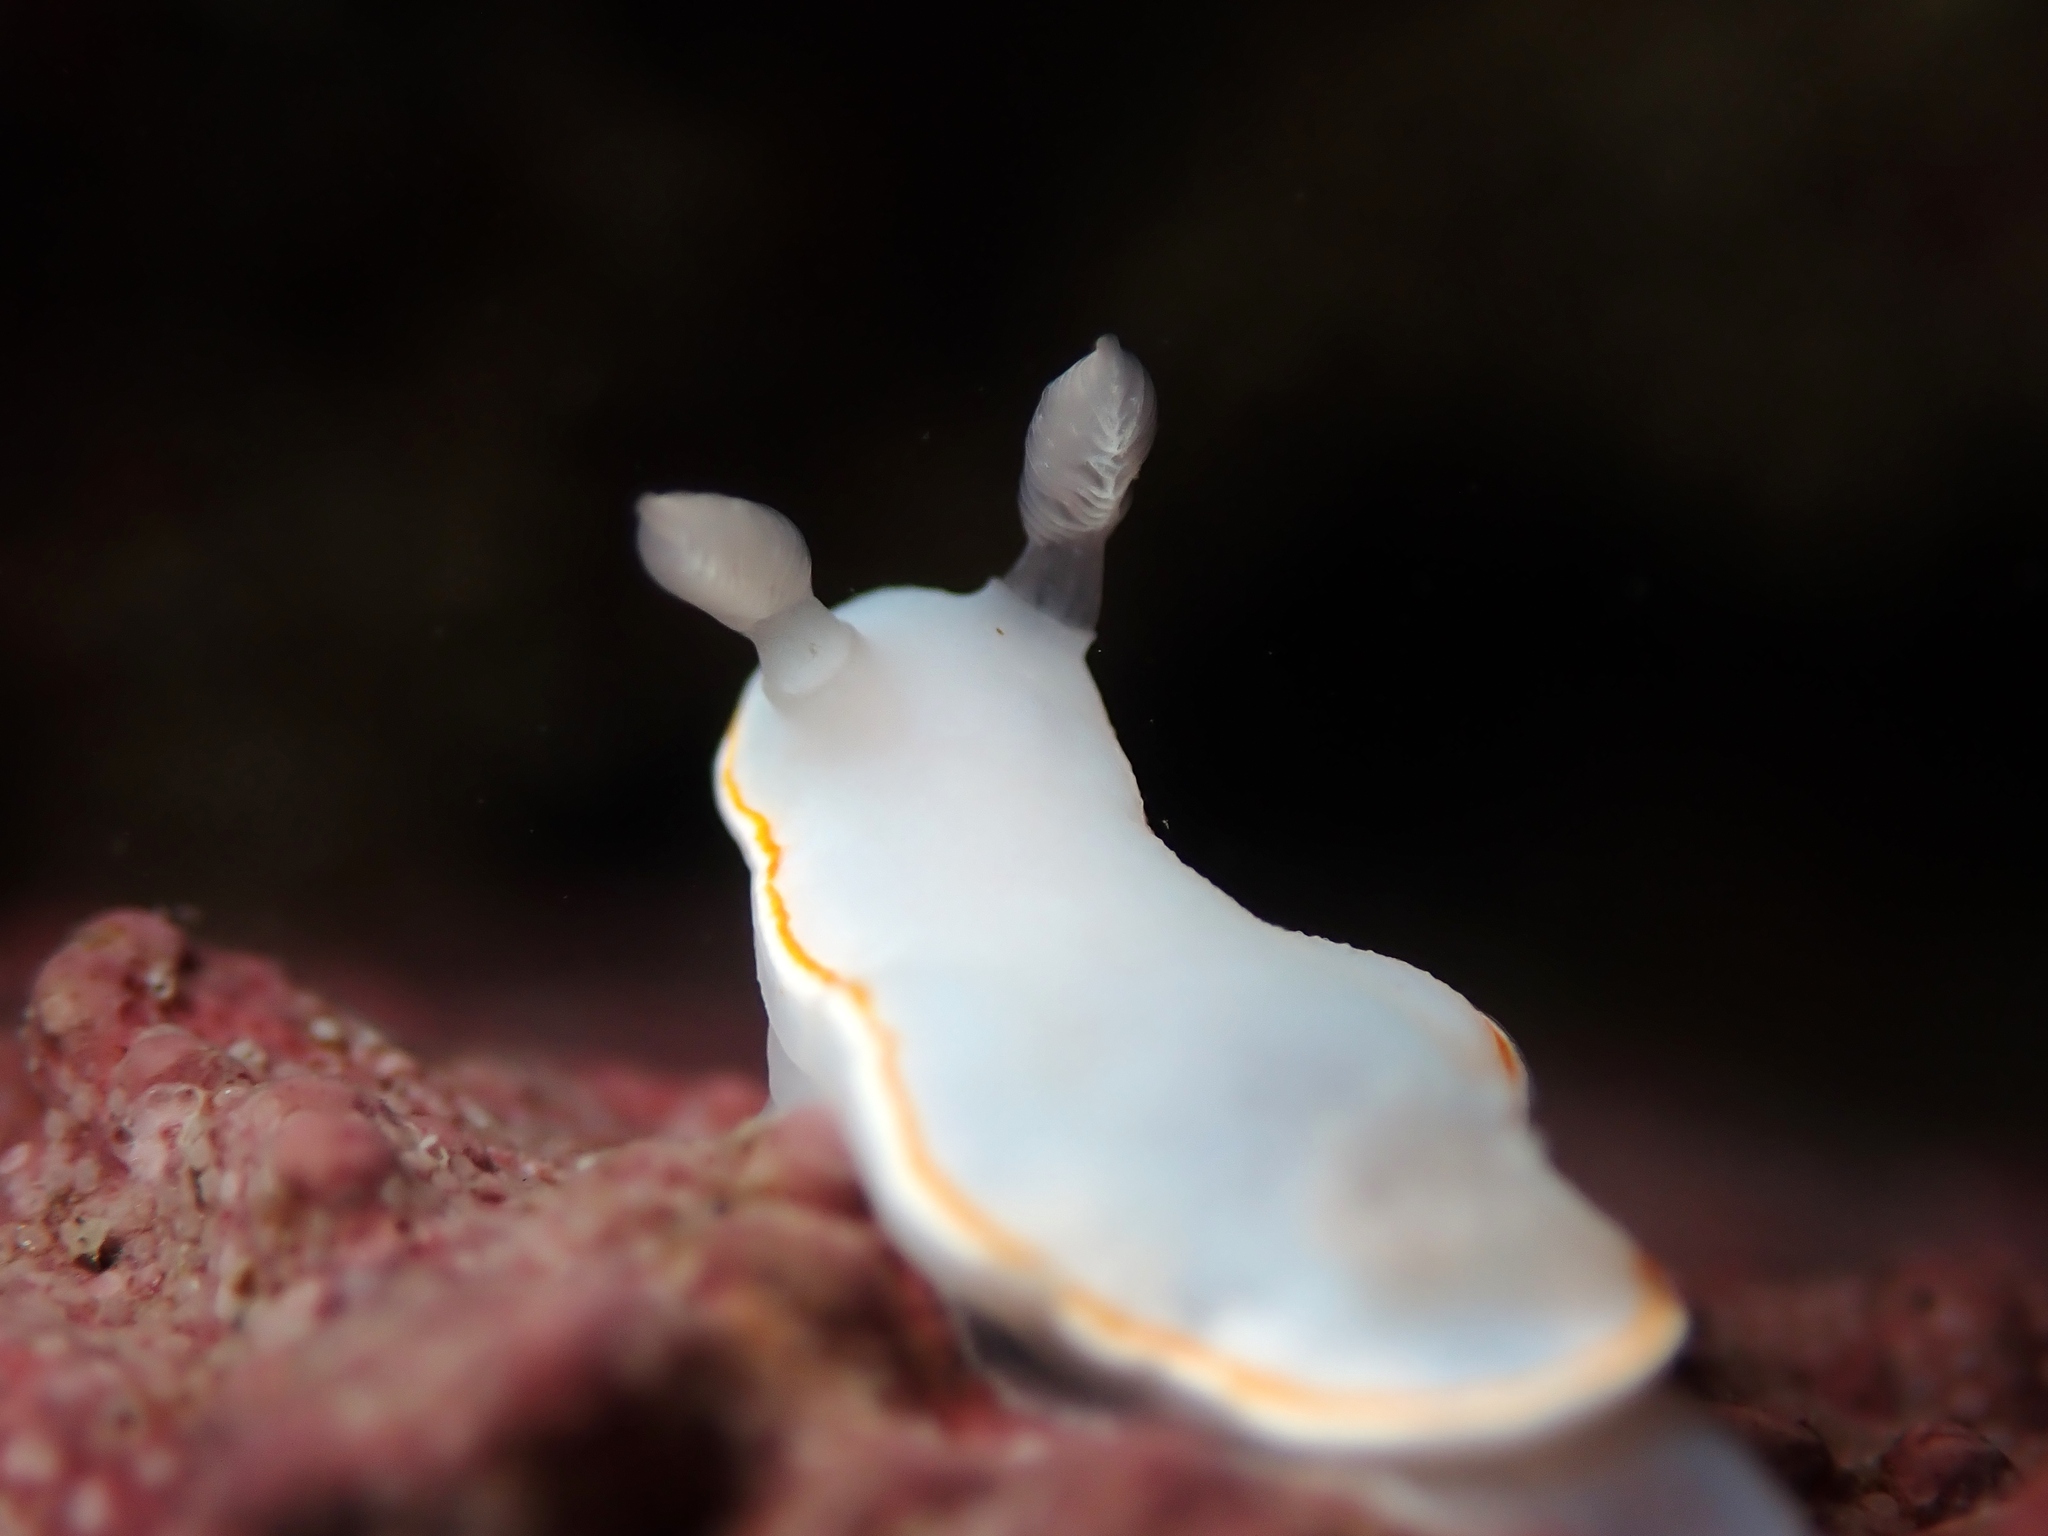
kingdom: Animalia
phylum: Mollusca
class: Gastropoda
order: Nudibranchia
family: Chromodorididae
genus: Goniobranchus
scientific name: Goniobranchus aureomarginatus
